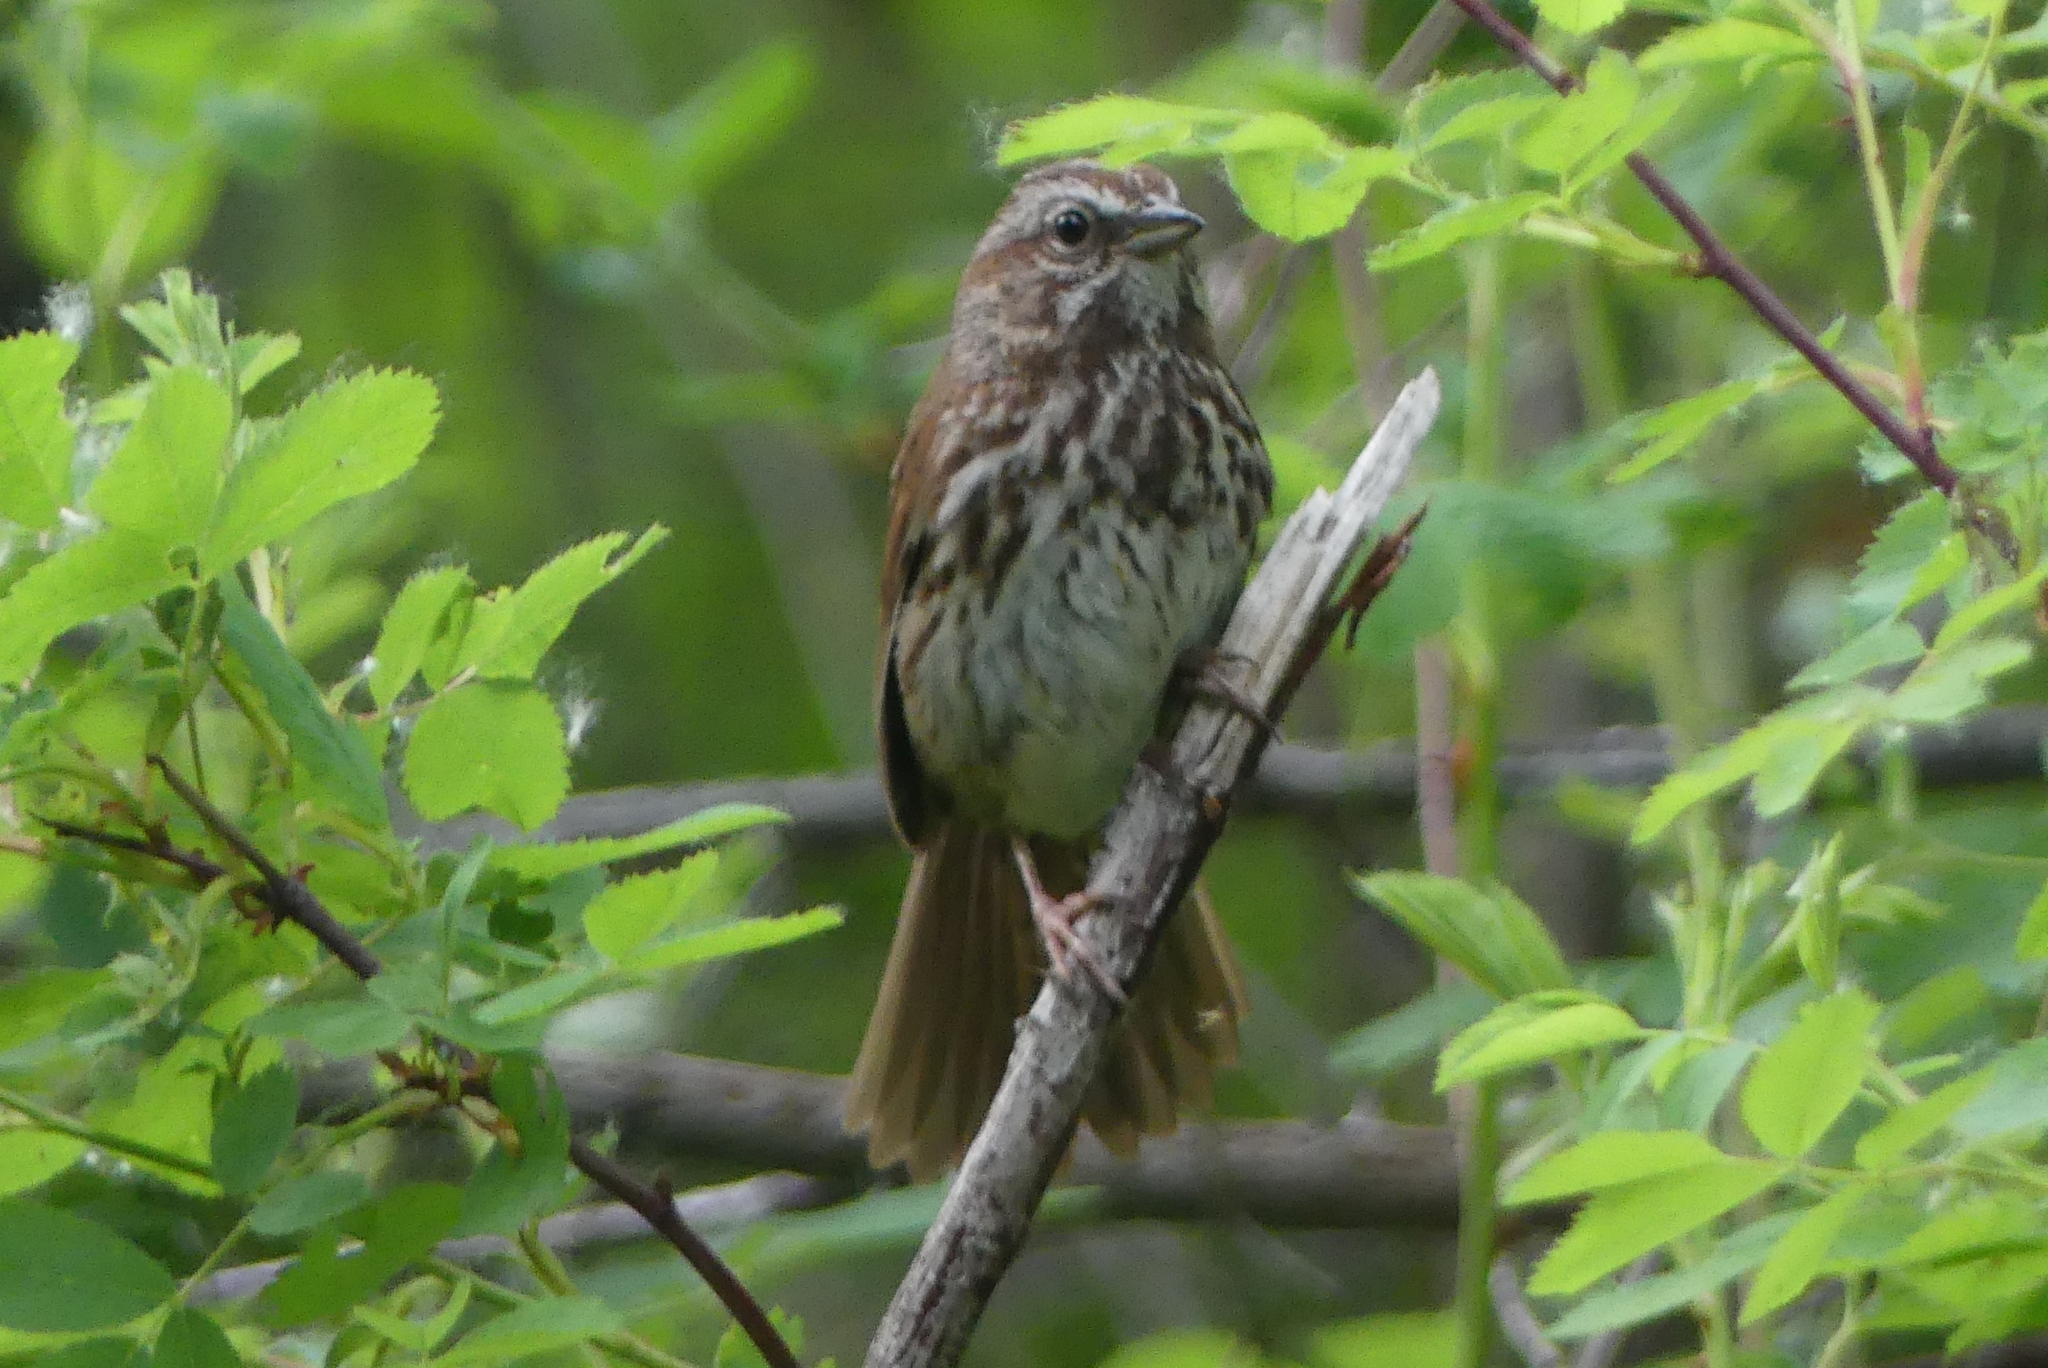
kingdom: Animalia
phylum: Chordata
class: Aves
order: Passeriformes
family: Passerellidae
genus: Melospiza
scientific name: Melospiza melodia
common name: Song sparrow
